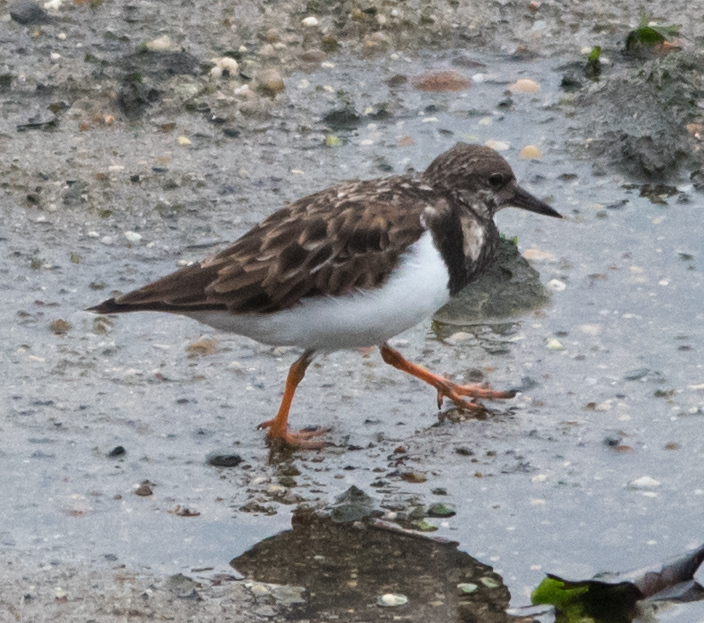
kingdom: Animalia
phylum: Chordata
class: Aves
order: Charadriiformes
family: Scolopacidae
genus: Arenaria
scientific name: Arenaria interpres
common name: Ruddy turnstone
